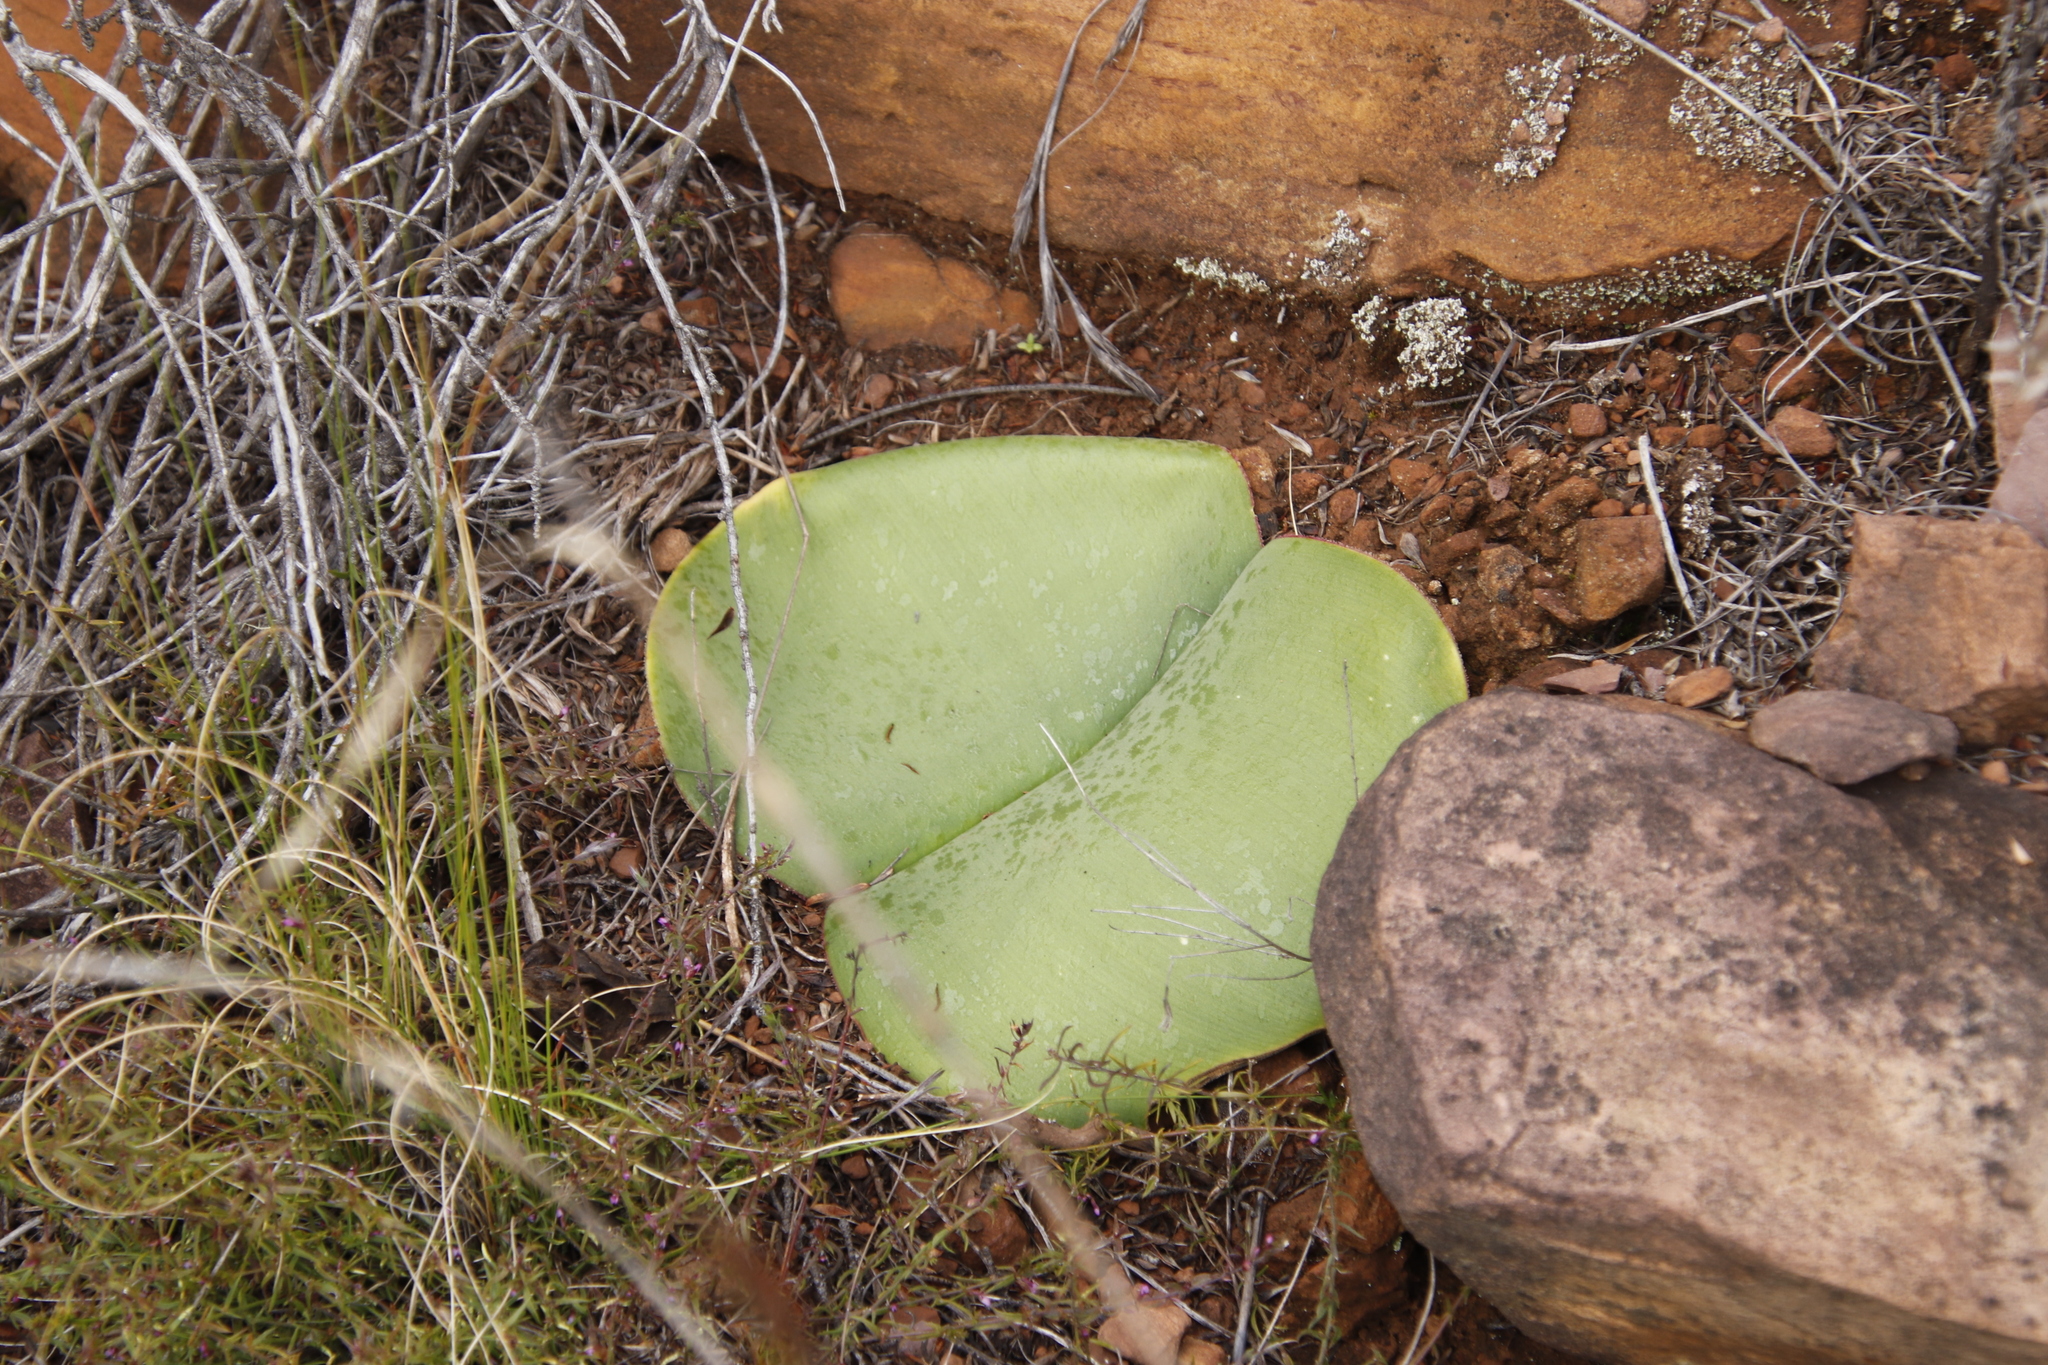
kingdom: Plantae
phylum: Tracheophyta
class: Liliopsida
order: Asparagales
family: Amaryllidaceae
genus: Haemanthus
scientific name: Haemanthus sanguineus
